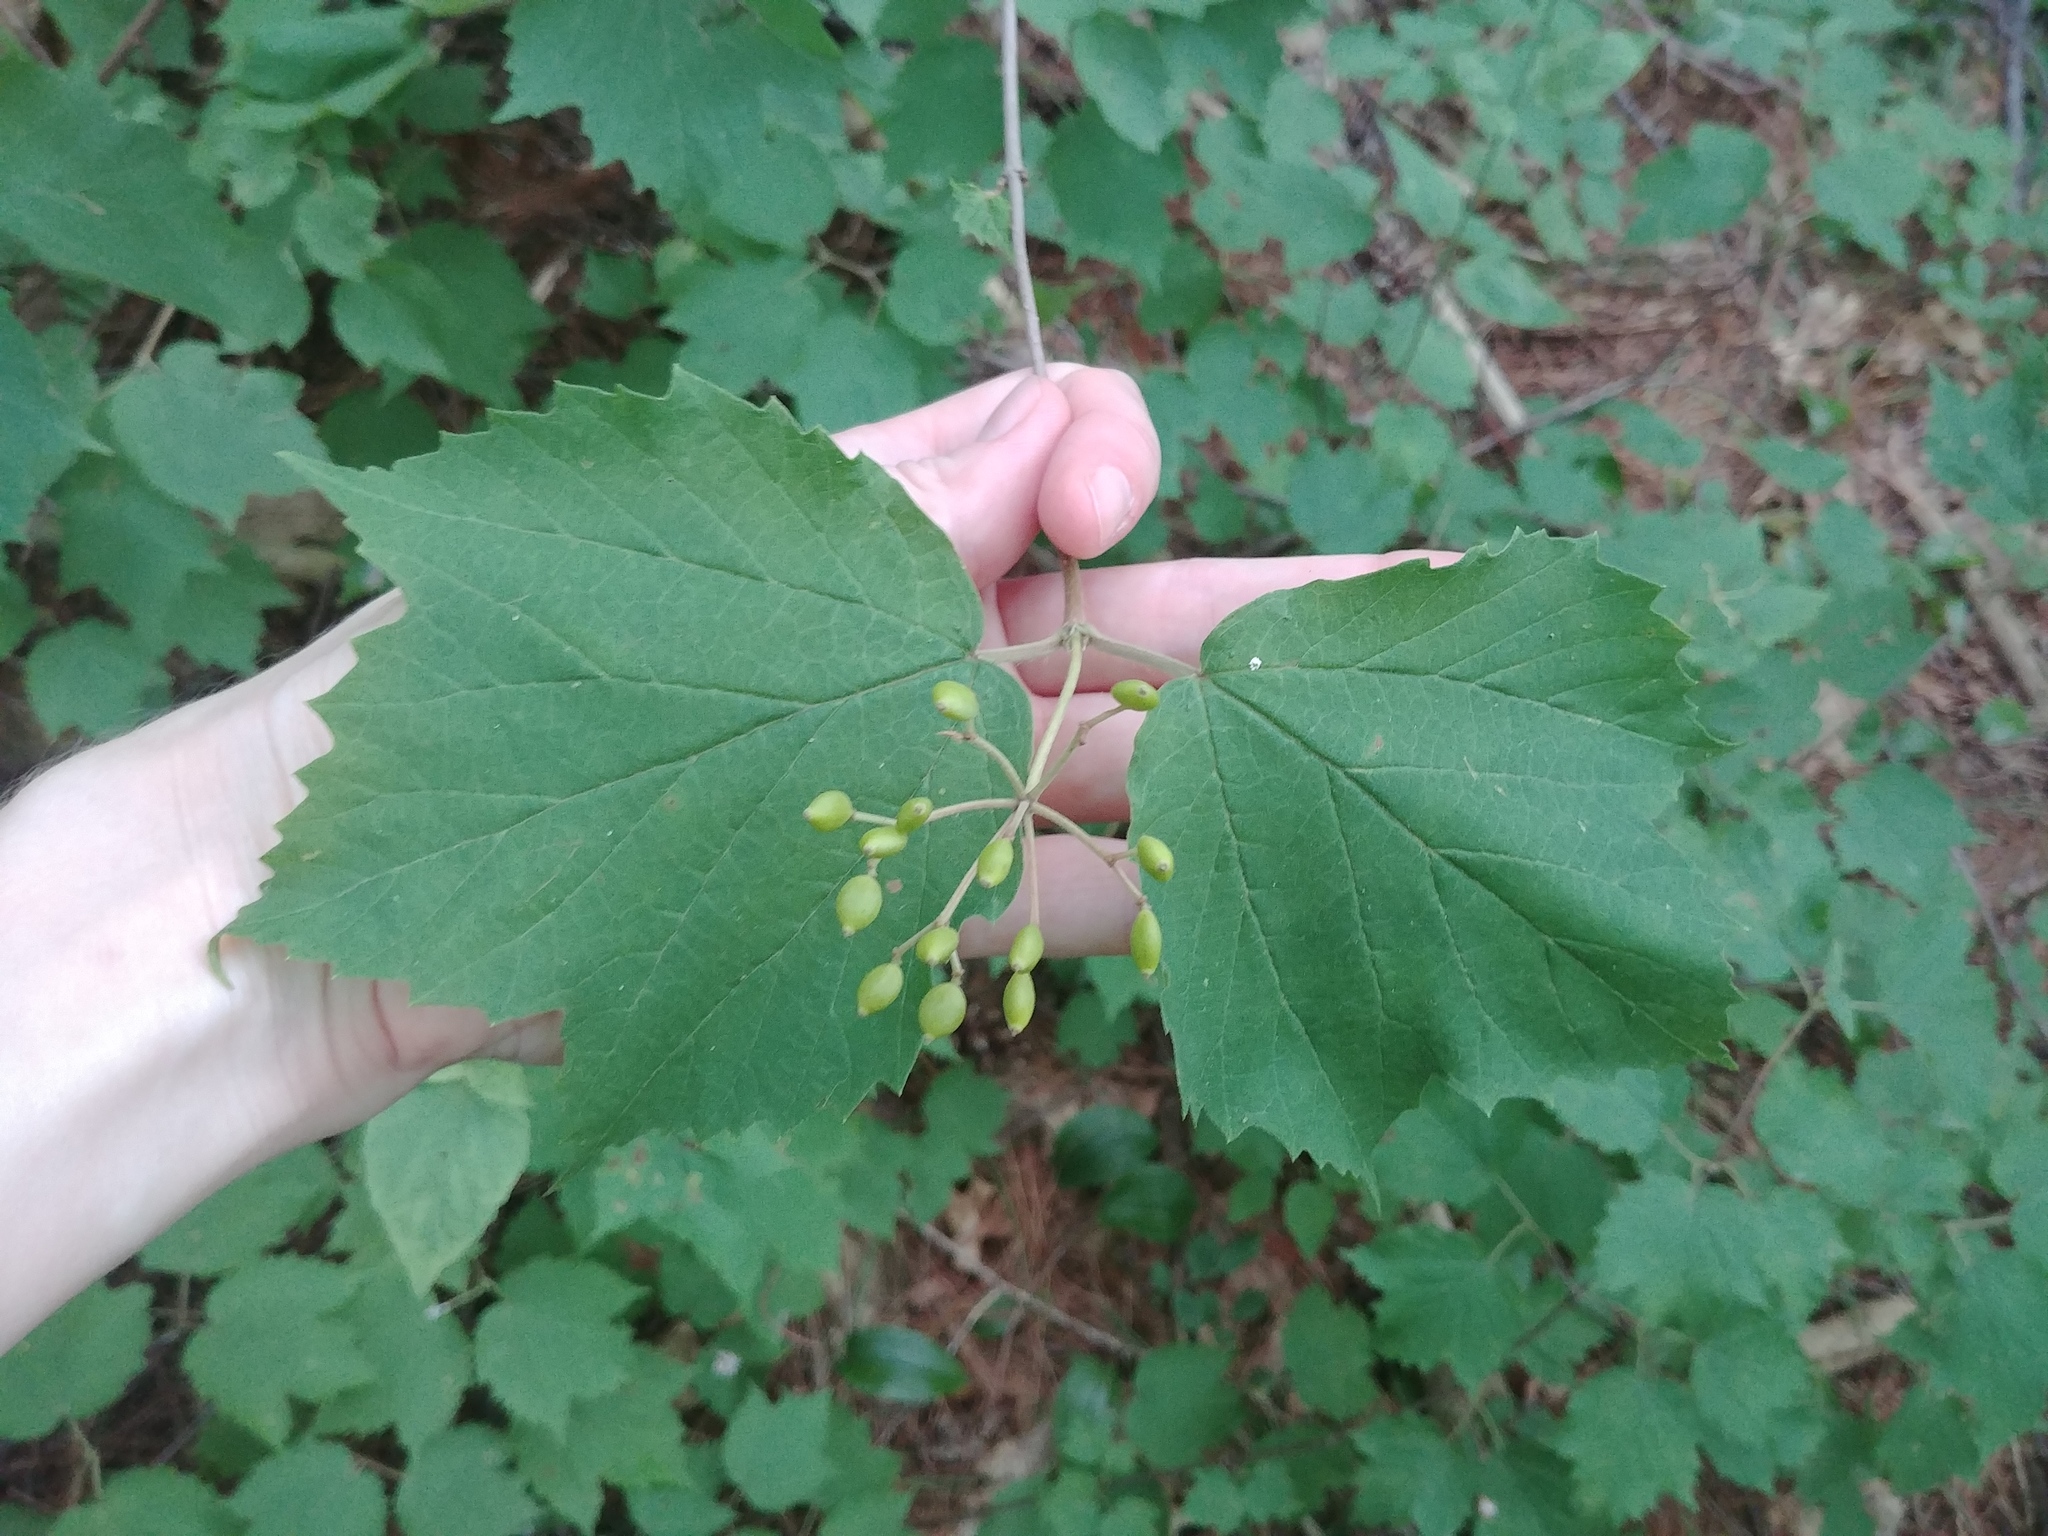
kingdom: Plantae
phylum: Tracheophyta
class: Magnoliopsida
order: Dipsacales
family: Viburnaceae
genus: Viburnum
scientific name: Viburnum acerifolium
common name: Dockmackie
